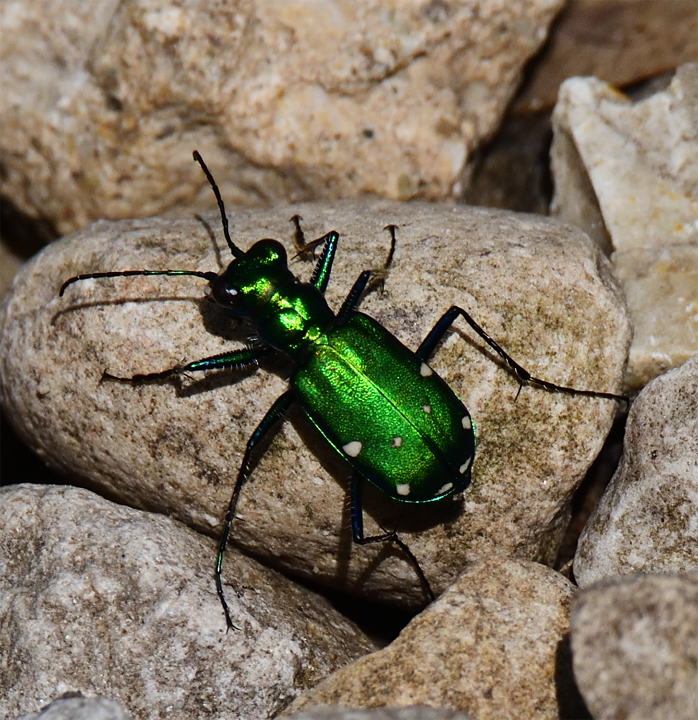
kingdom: Animalia
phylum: Arthropoda
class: Insecta
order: Coleoptera
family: Carabidae
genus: Cicindela
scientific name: Cicindela sexguttata
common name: Six-spotted tiger beetle
